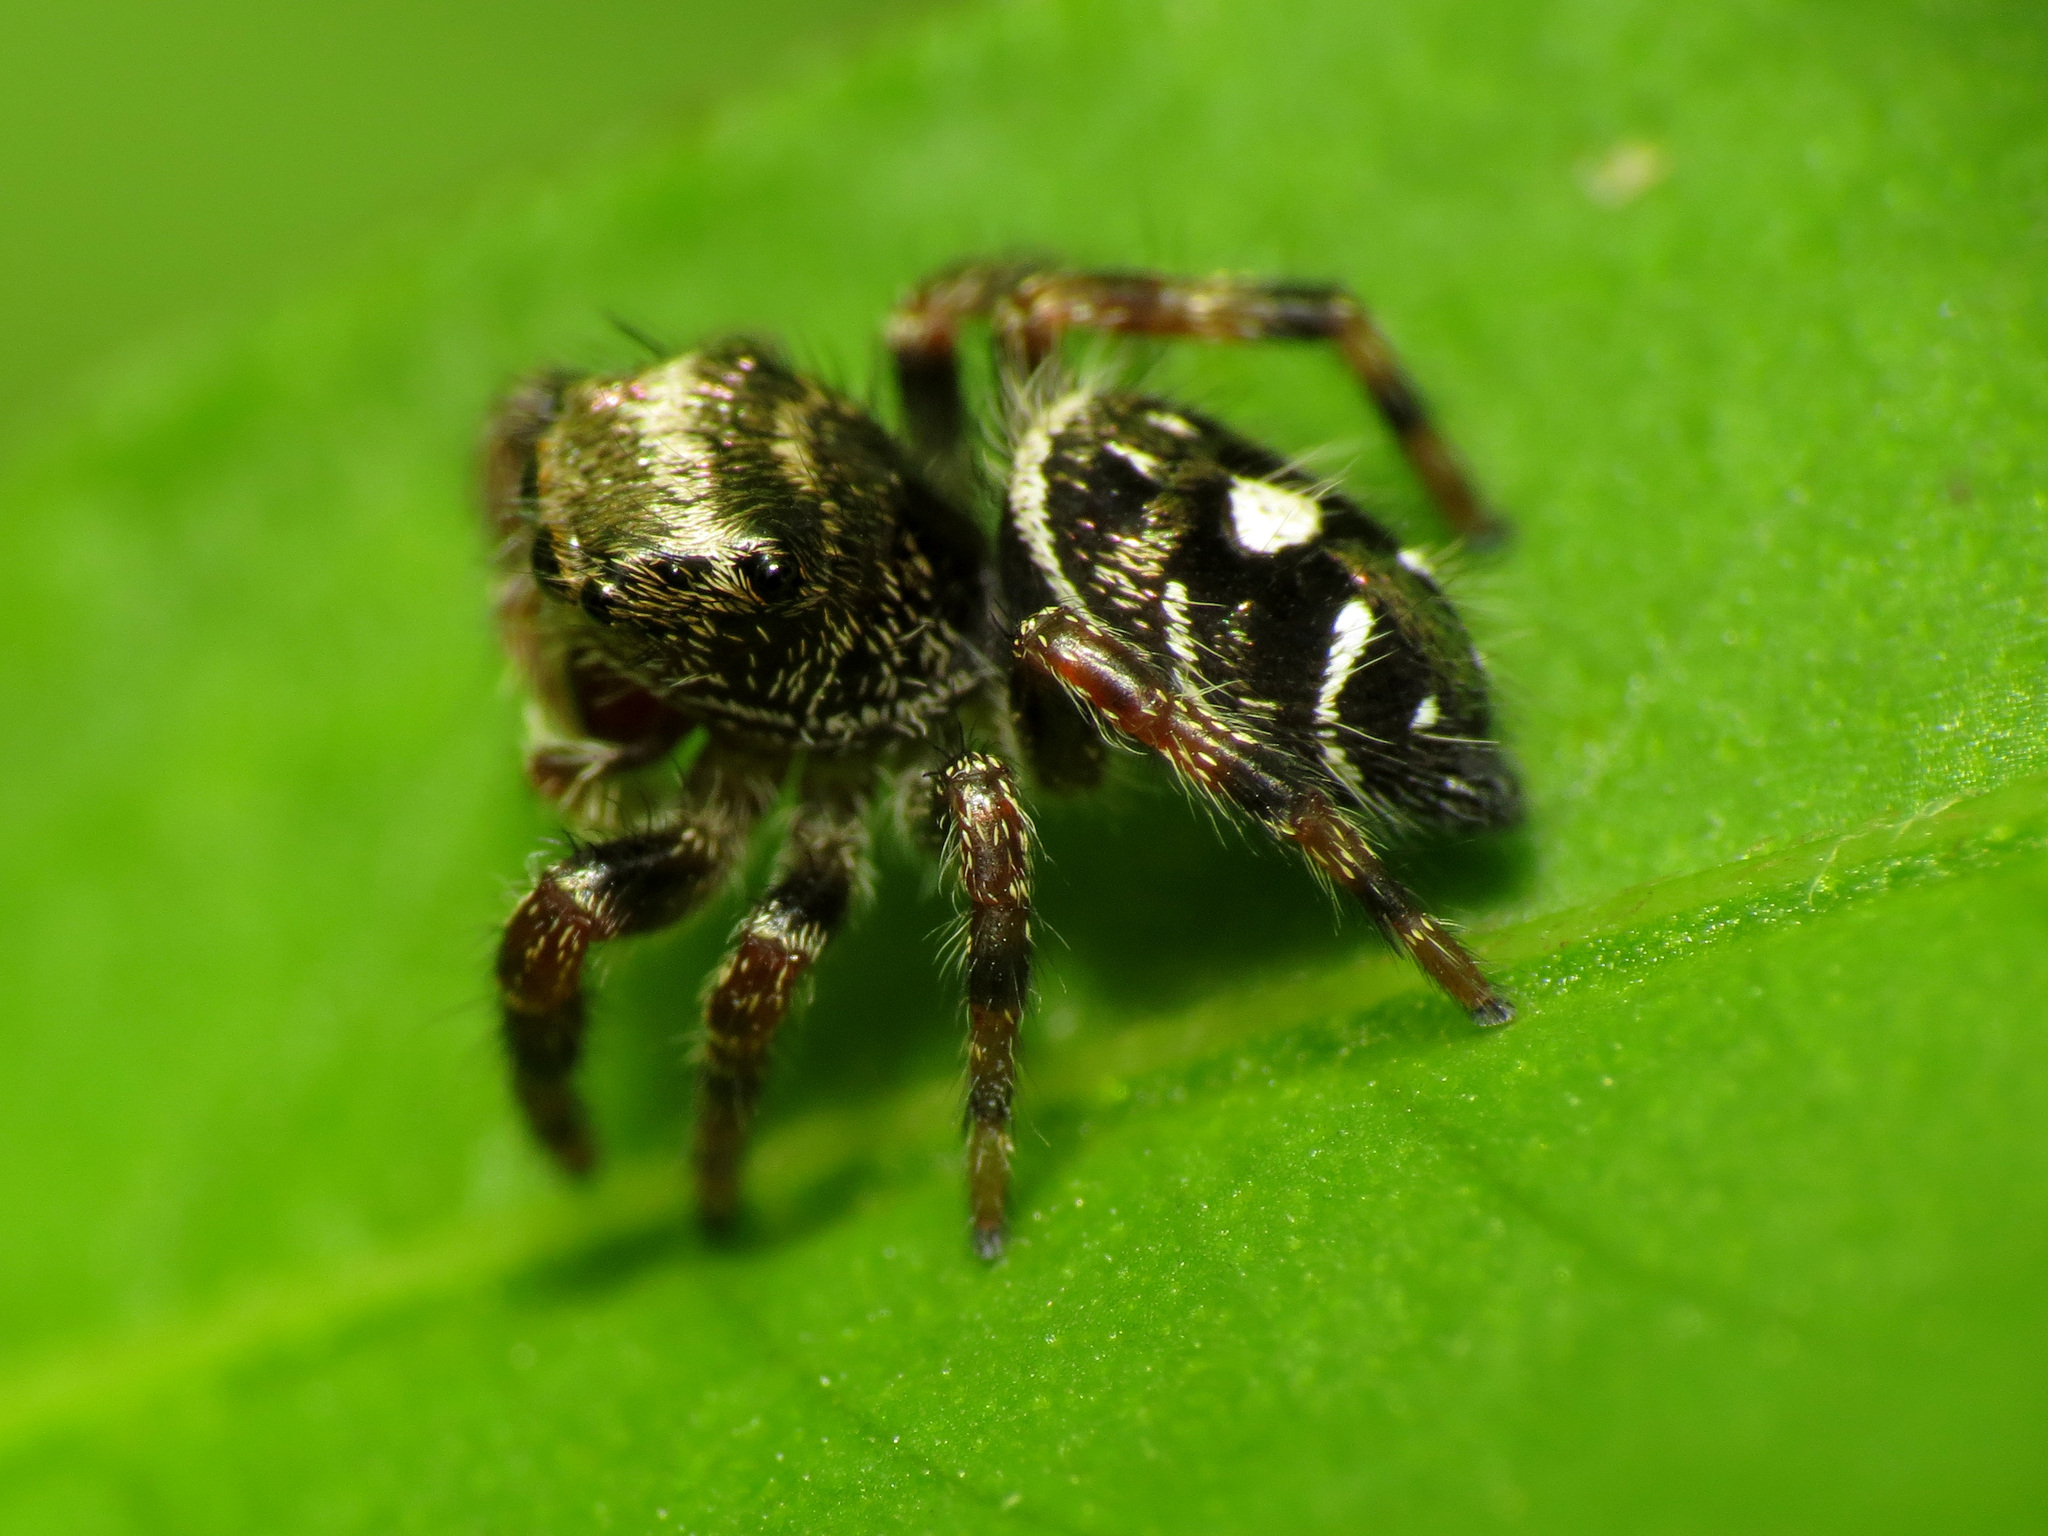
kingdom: Animalia
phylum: Arthropoda
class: Arachnida
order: Araneae
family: Salticidae
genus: Phidippus
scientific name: Phidippus audax
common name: Bold jumper
